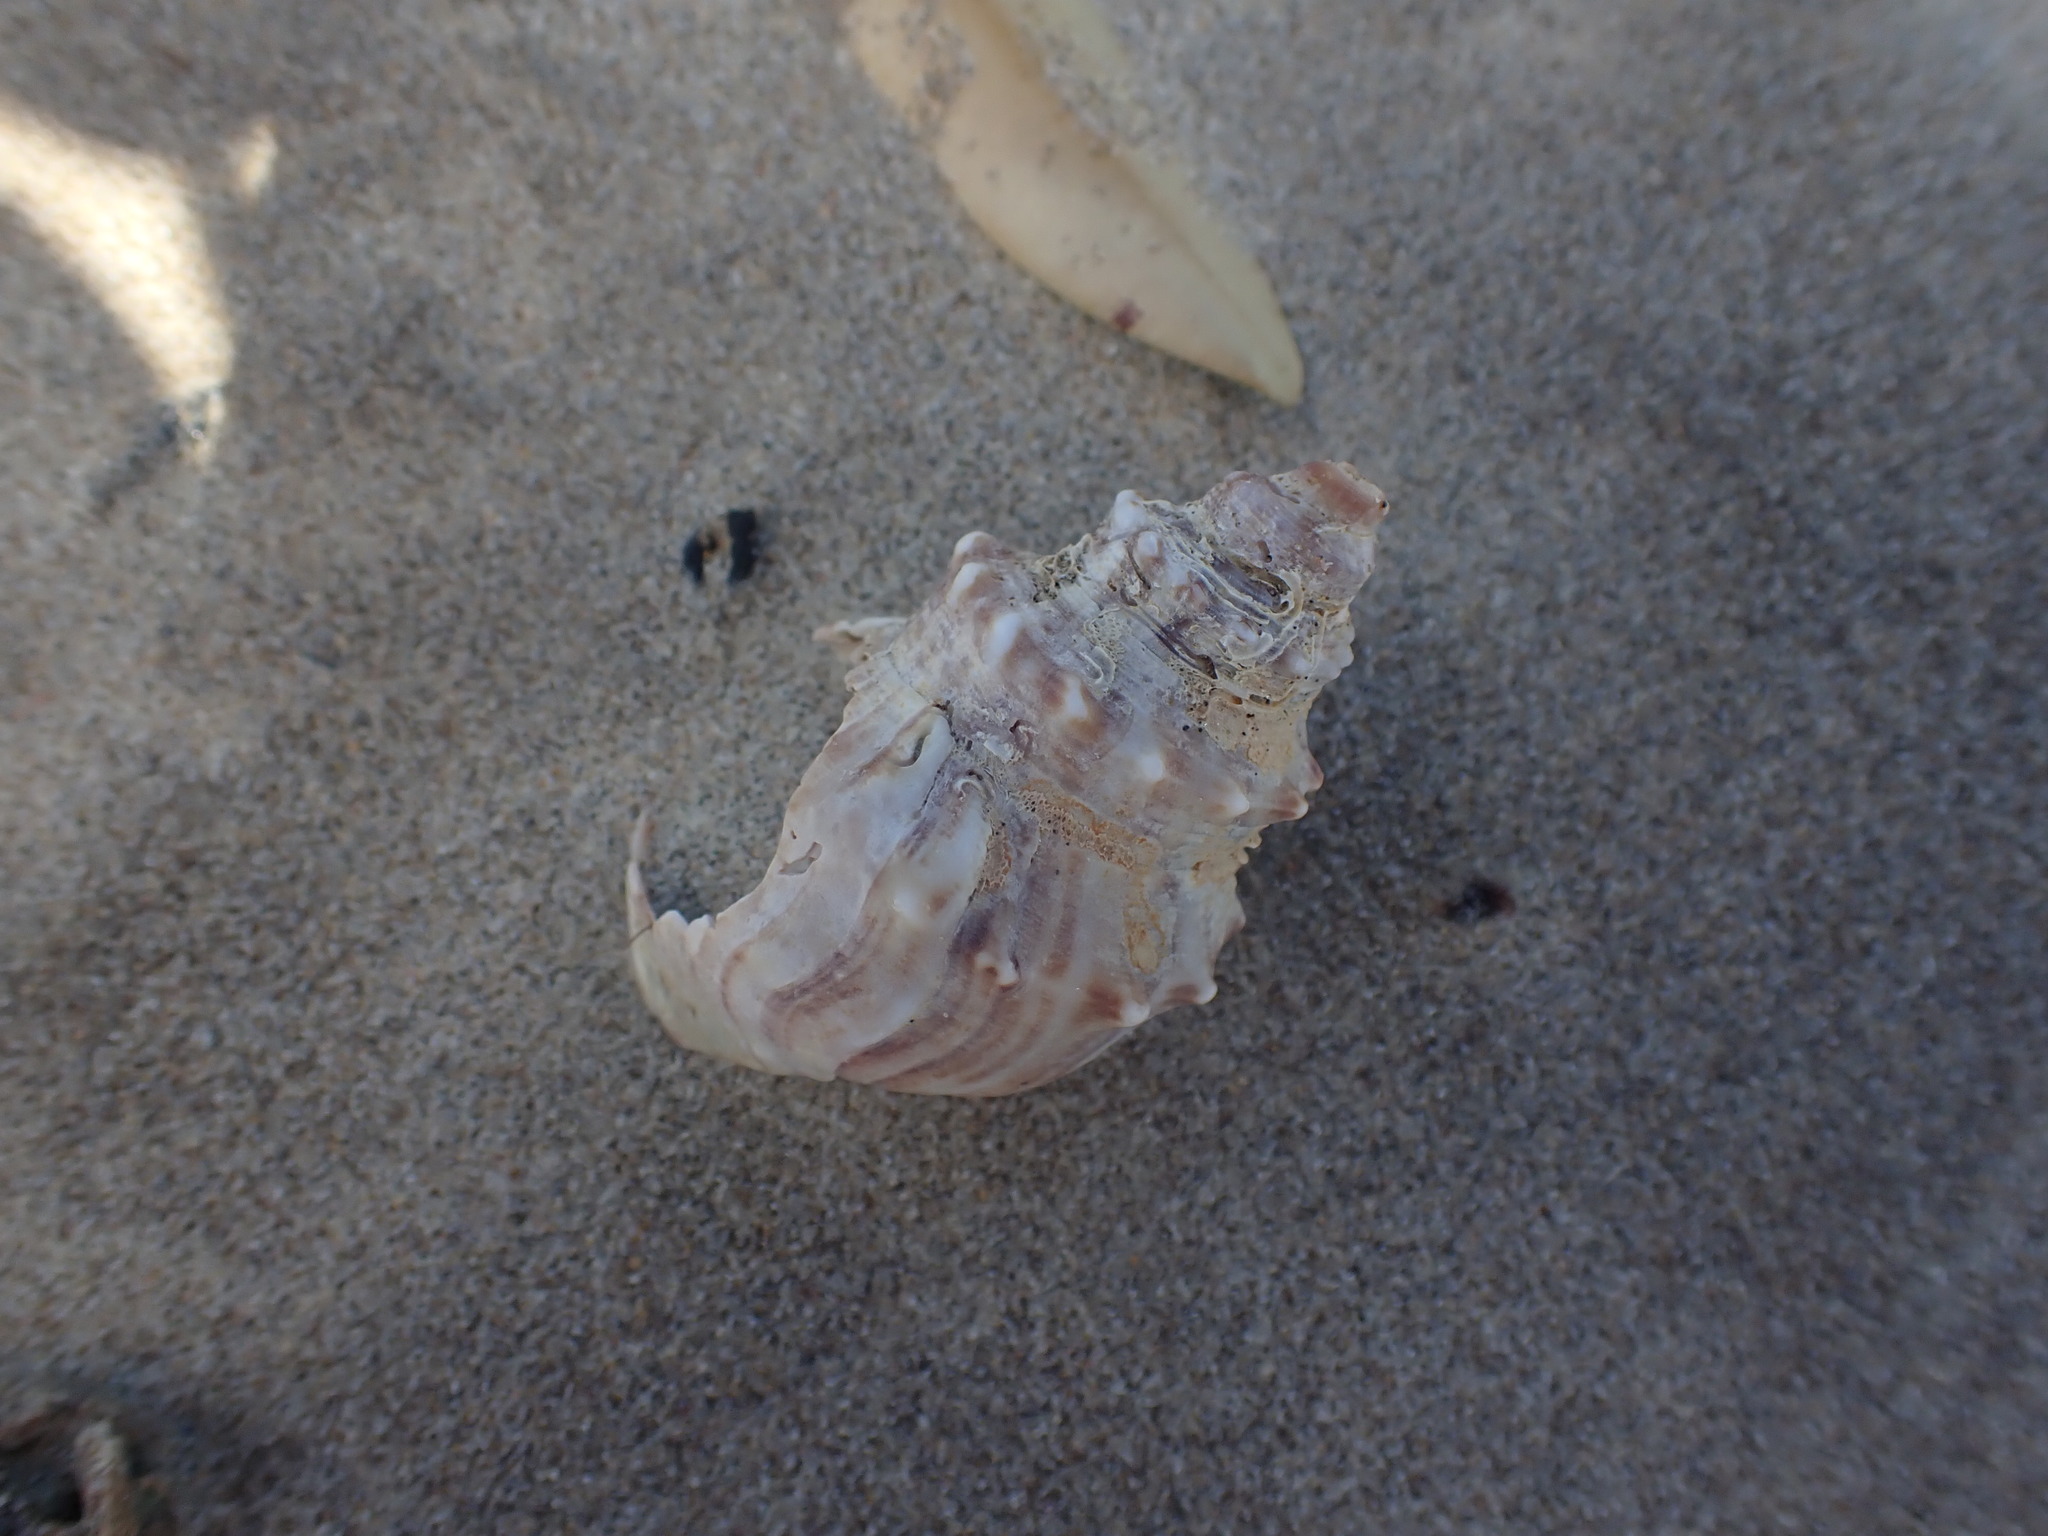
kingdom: Animalia
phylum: Mollusca
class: Gastropoda
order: Littorinimorpha
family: Struthiolariidae
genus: Struthiolaria
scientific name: Struthiolaria papulosa
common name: Large ostrich foot
